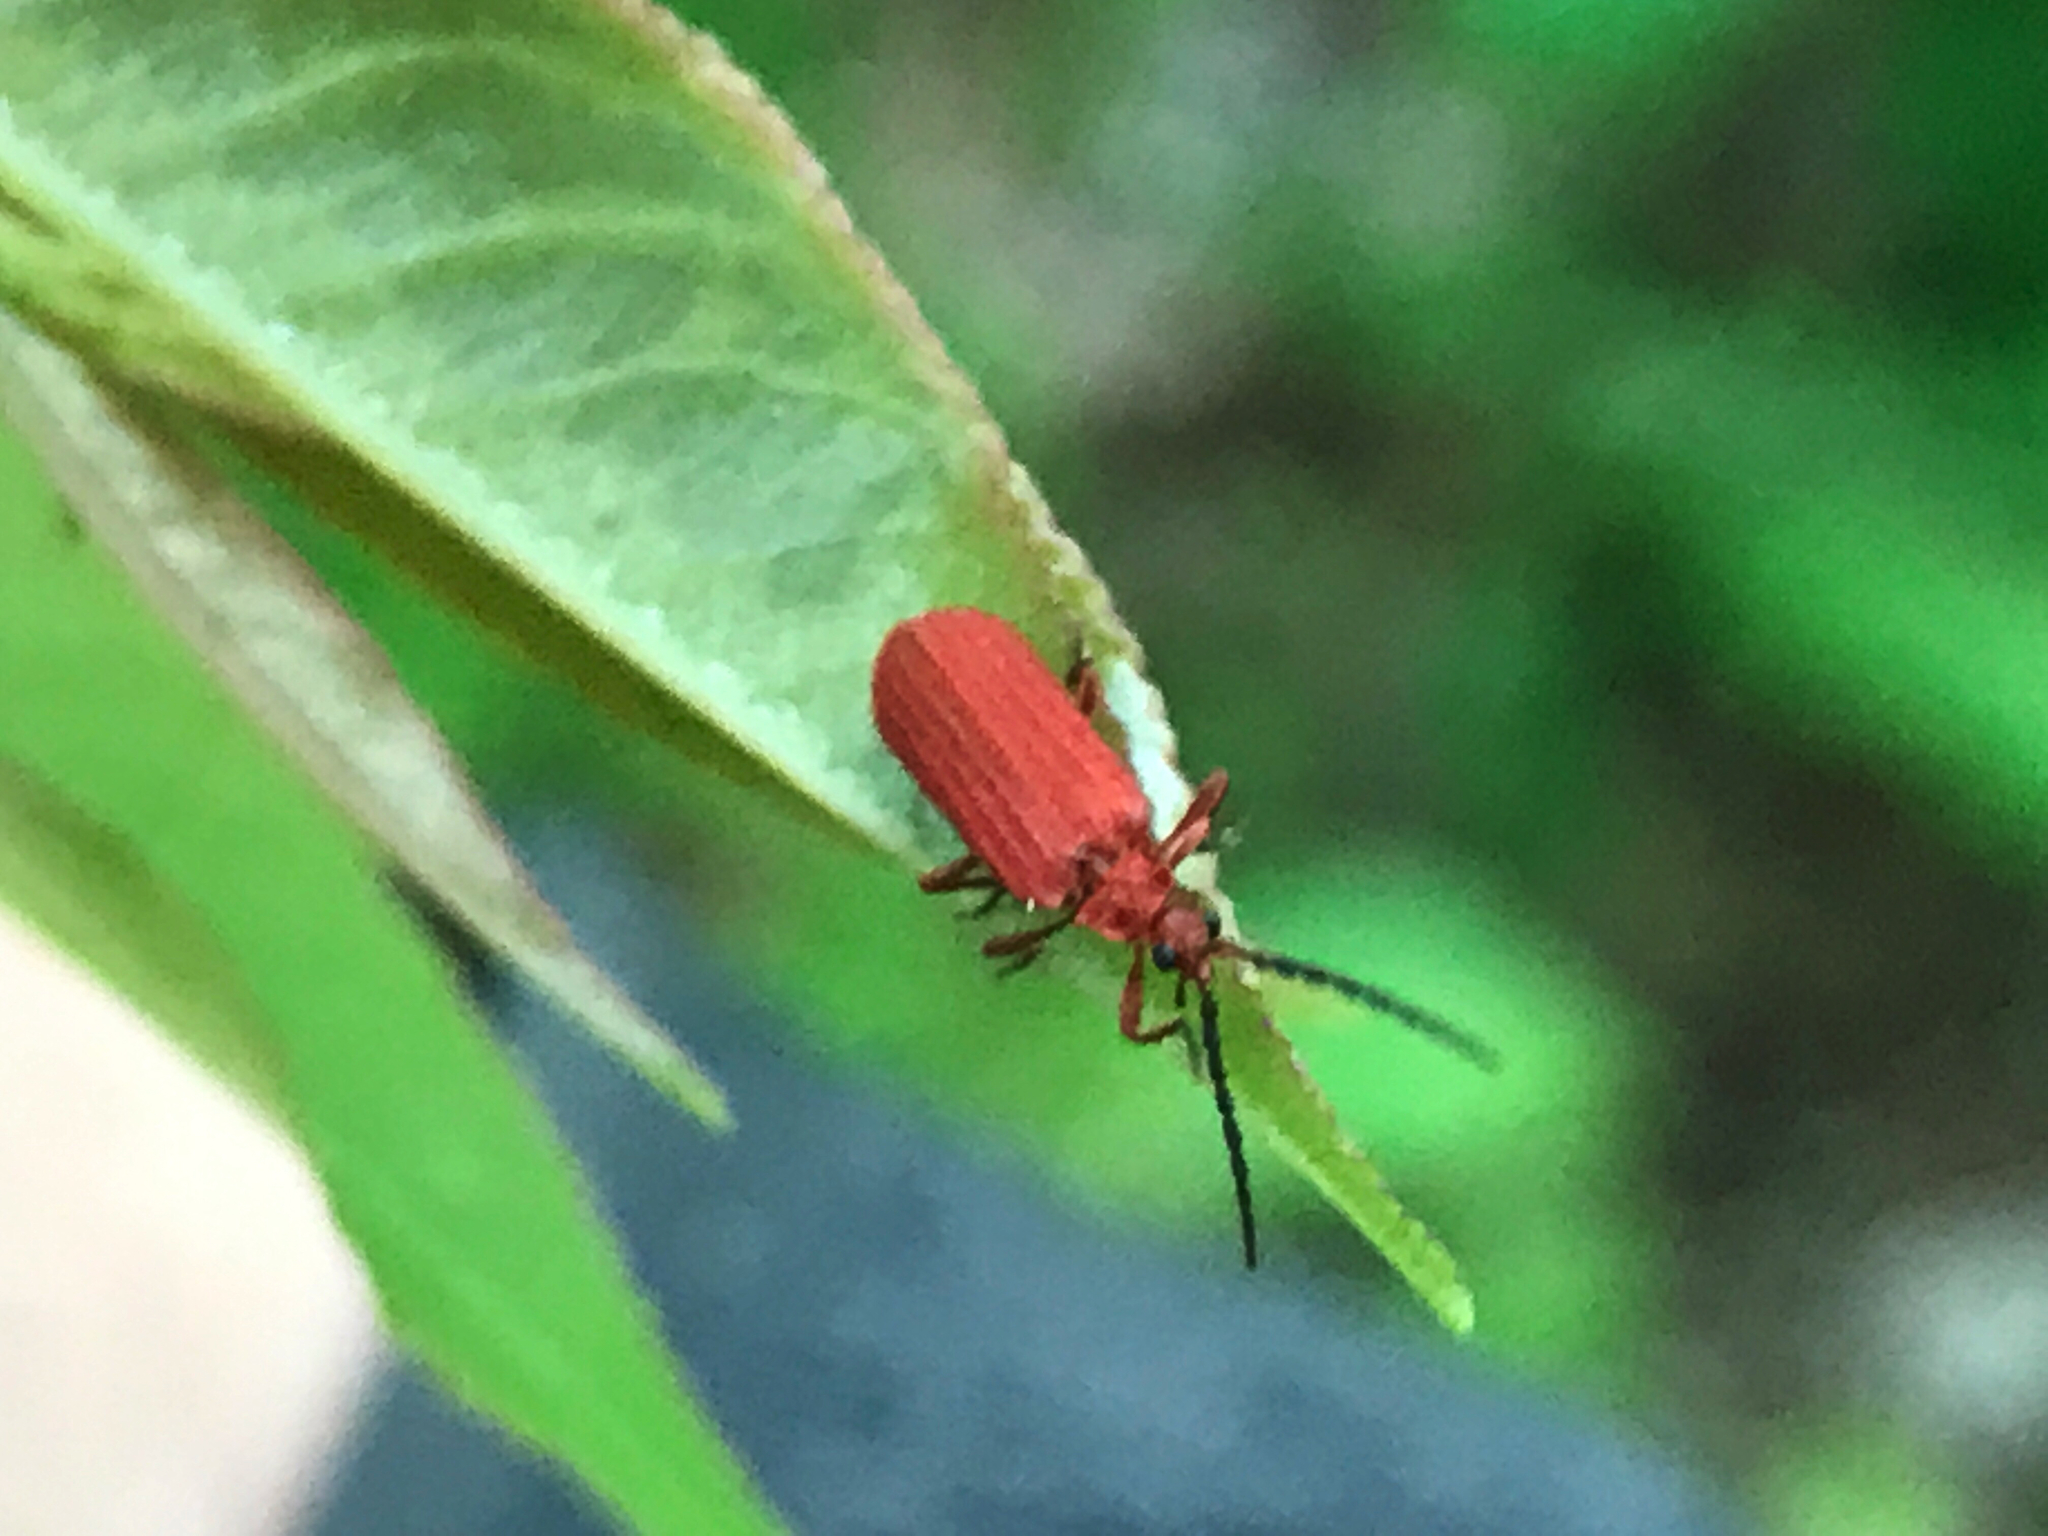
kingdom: Animalia
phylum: Arthropoda
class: Insecta
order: Coleoptera
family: Lycidae
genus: Punicealis
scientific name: Punicealis
